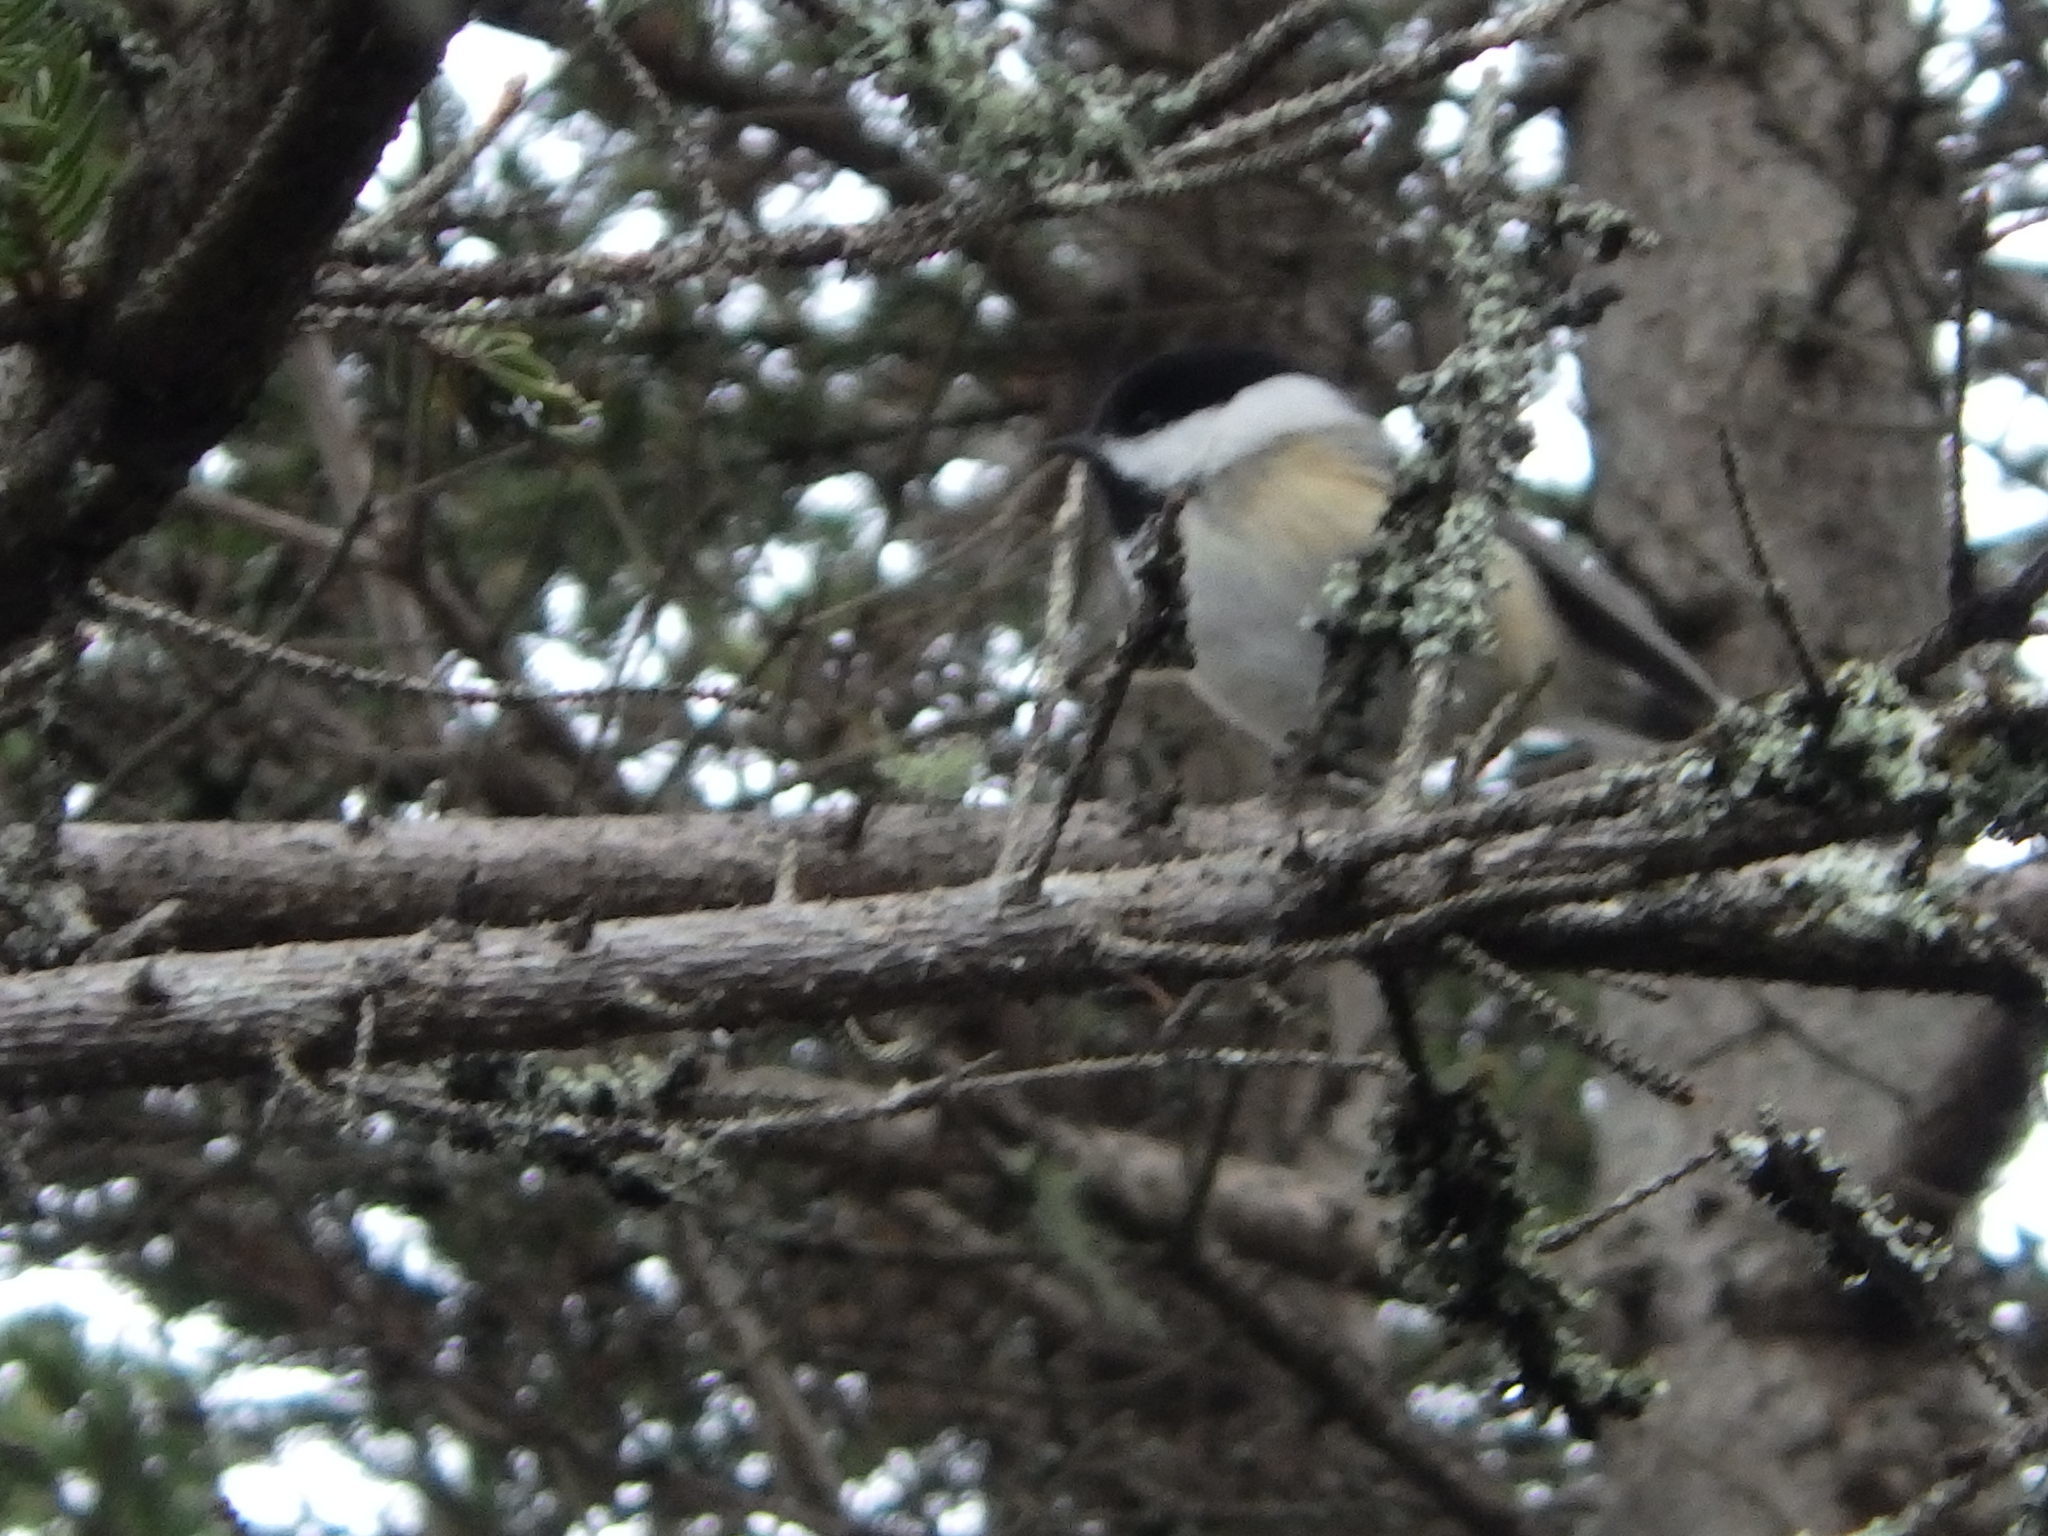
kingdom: Animalia
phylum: Chordata
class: Aves
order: Passeriformes
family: Paridae
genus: Poecile
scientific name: Poecile atricapillus
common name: Black-capped chickadee
